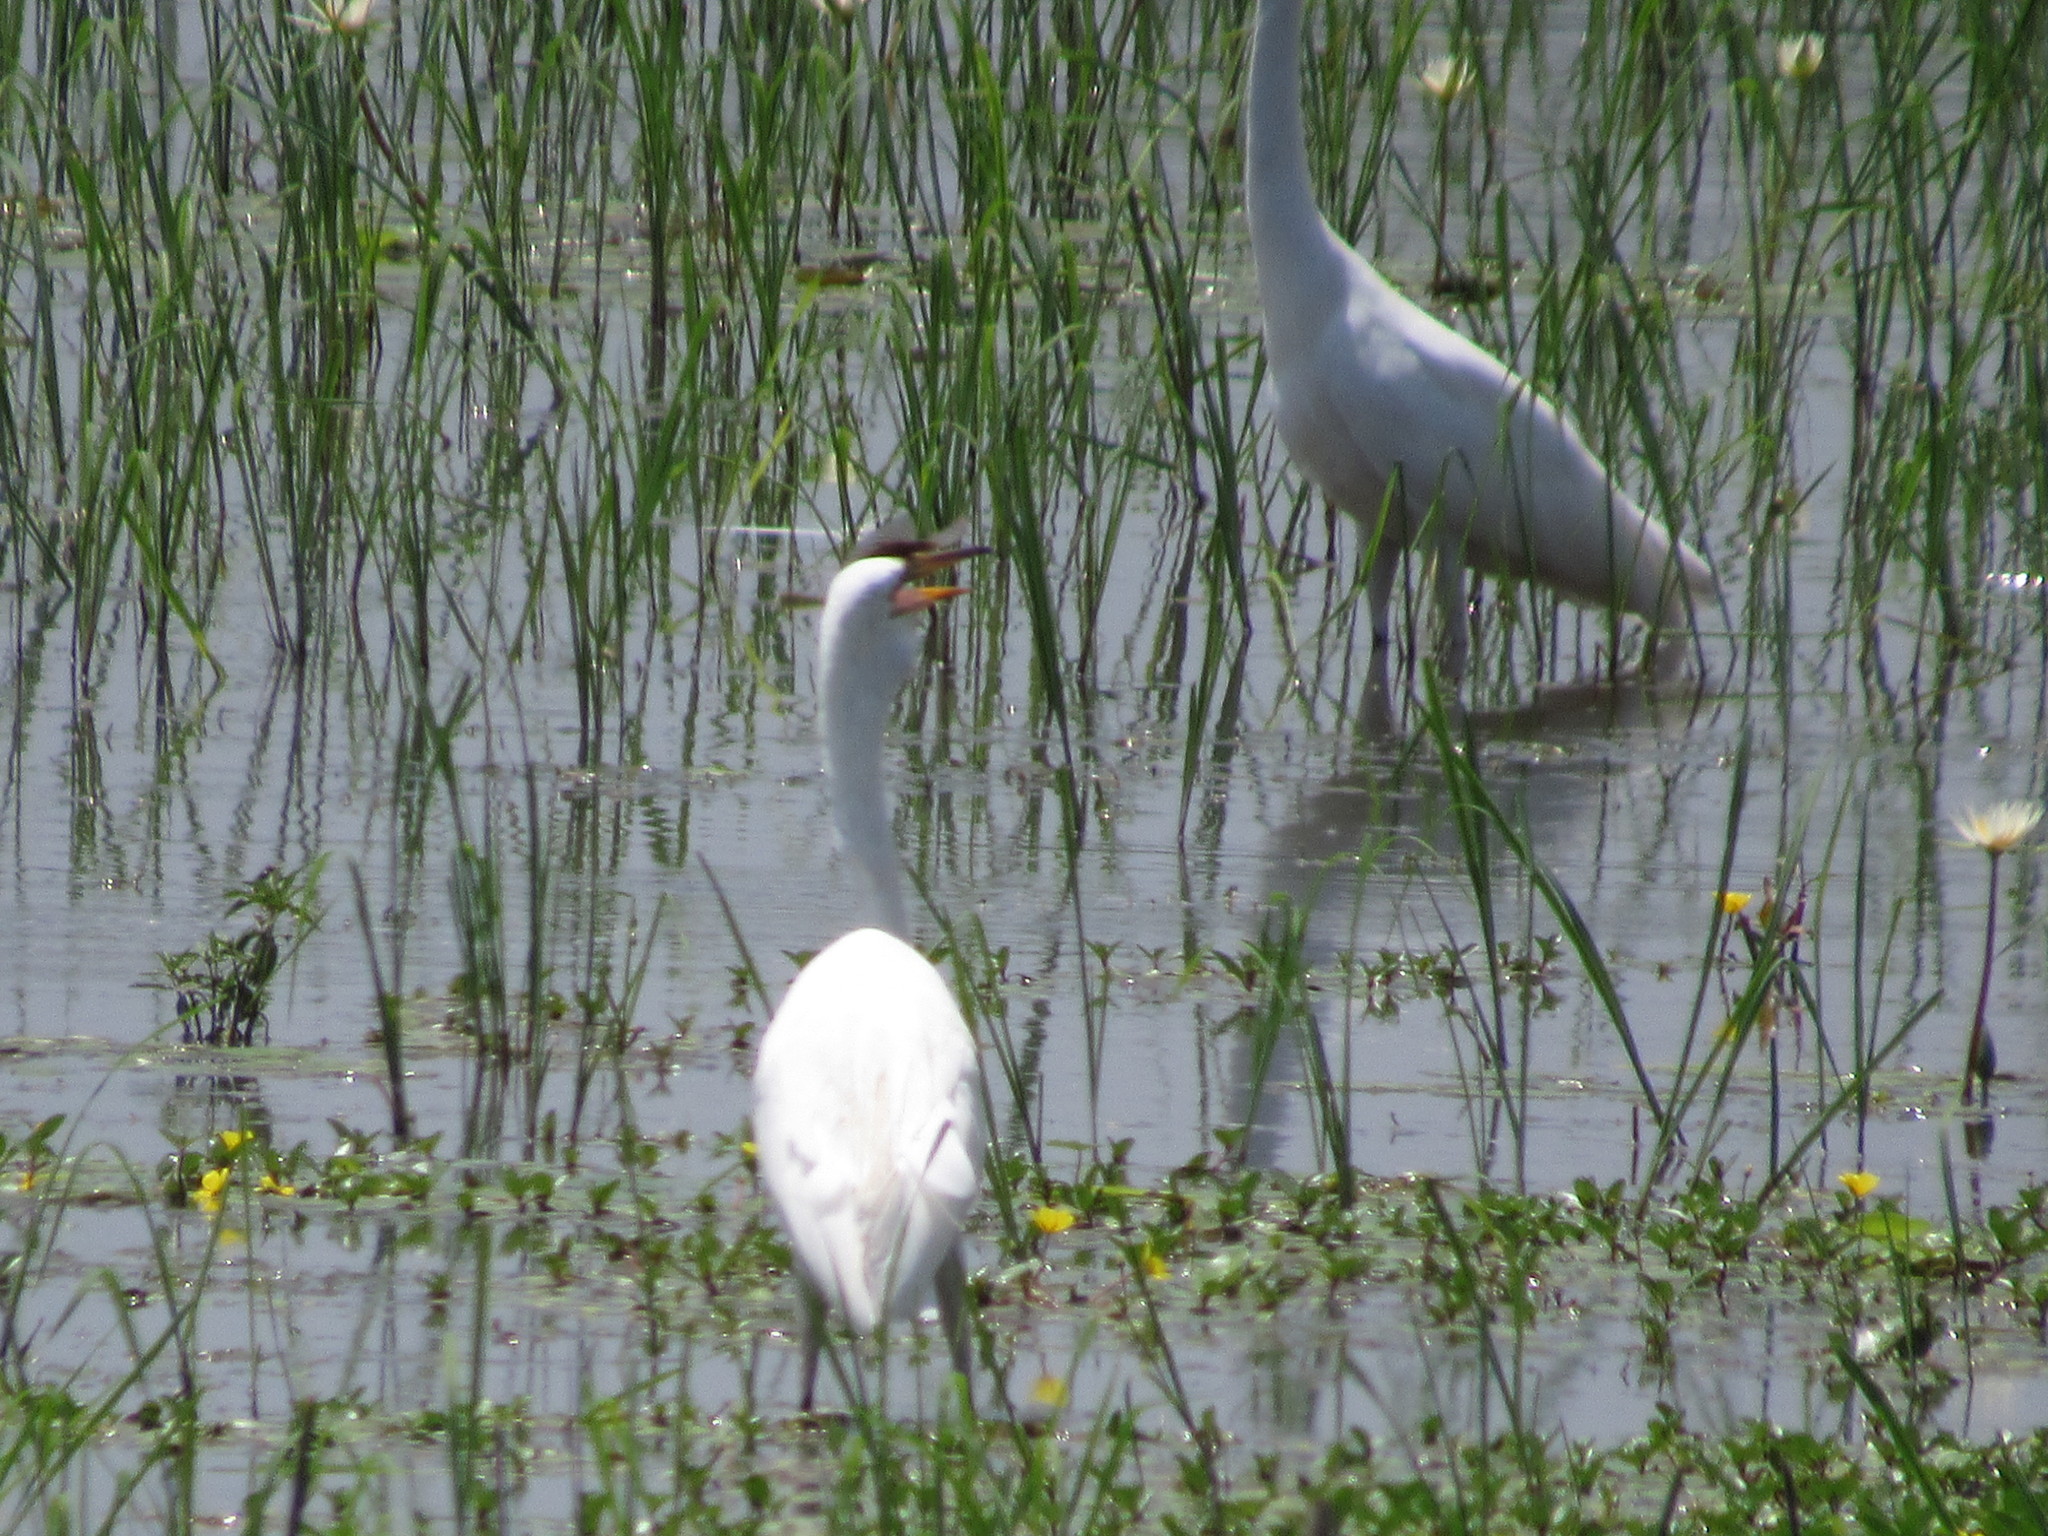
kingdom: Animalia
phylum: Chordata
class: Aves
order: Pelecaniformes
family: Ardeidae
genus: Ardea
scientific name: Ardea alba
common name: Great egret
